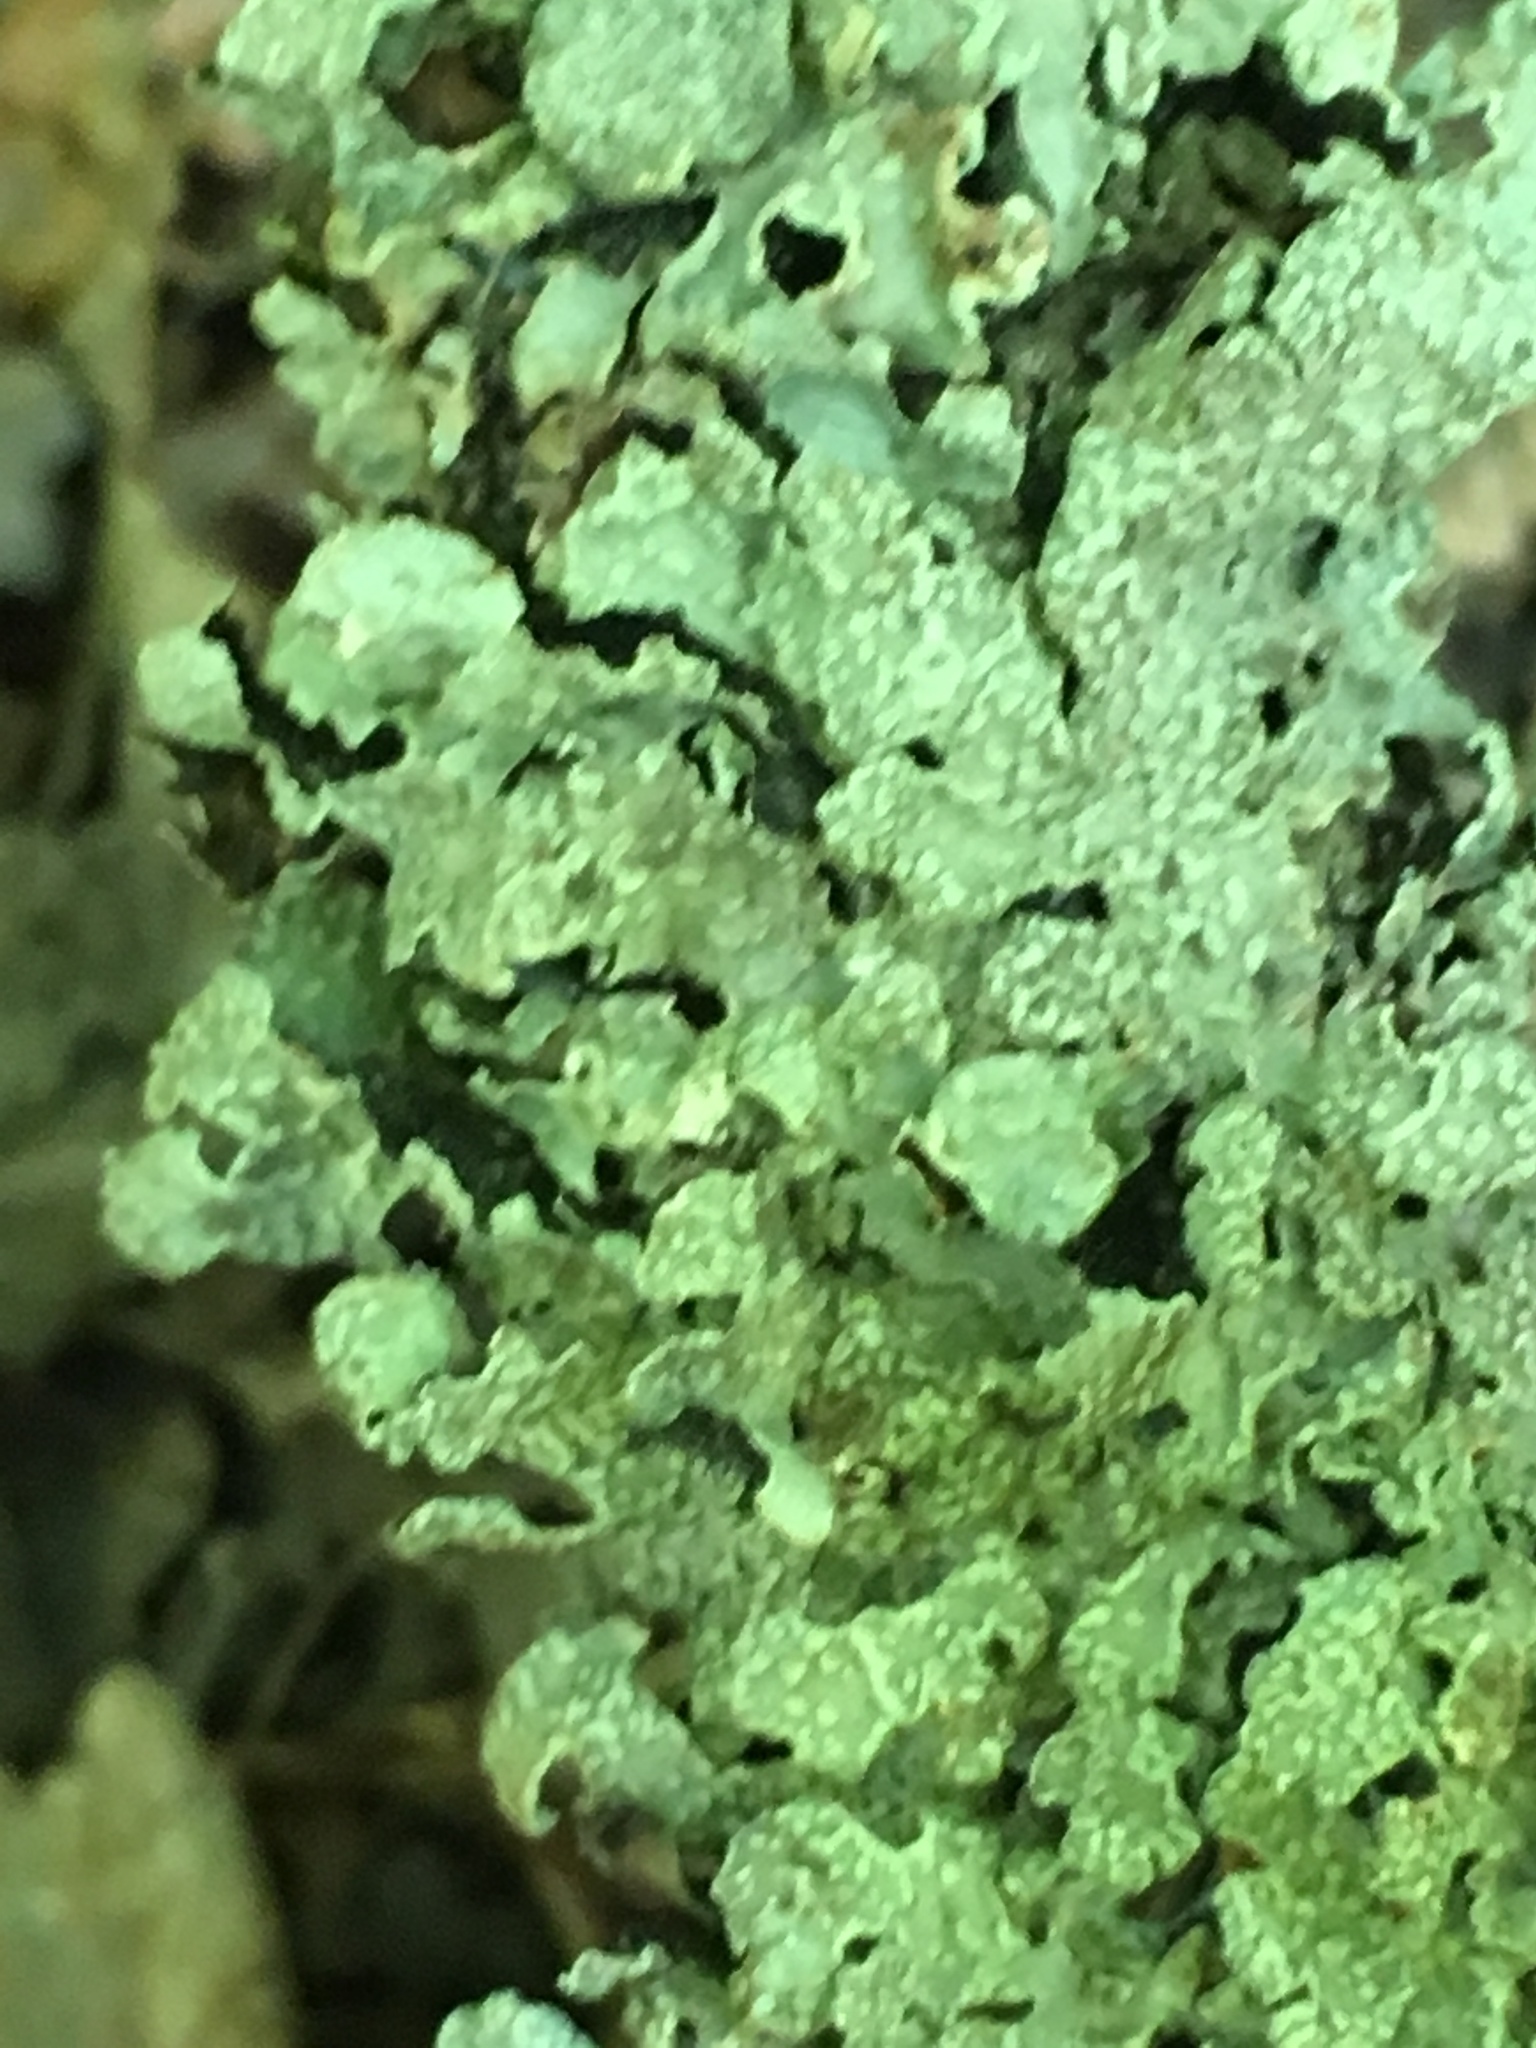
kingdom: Fungi
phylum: Ascomycota
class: Lecanoromycetes
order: Lecanorales
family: Parmeliaceae
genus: Parmelia
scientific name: Parmelia sulcata
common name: Netted shield lichen
